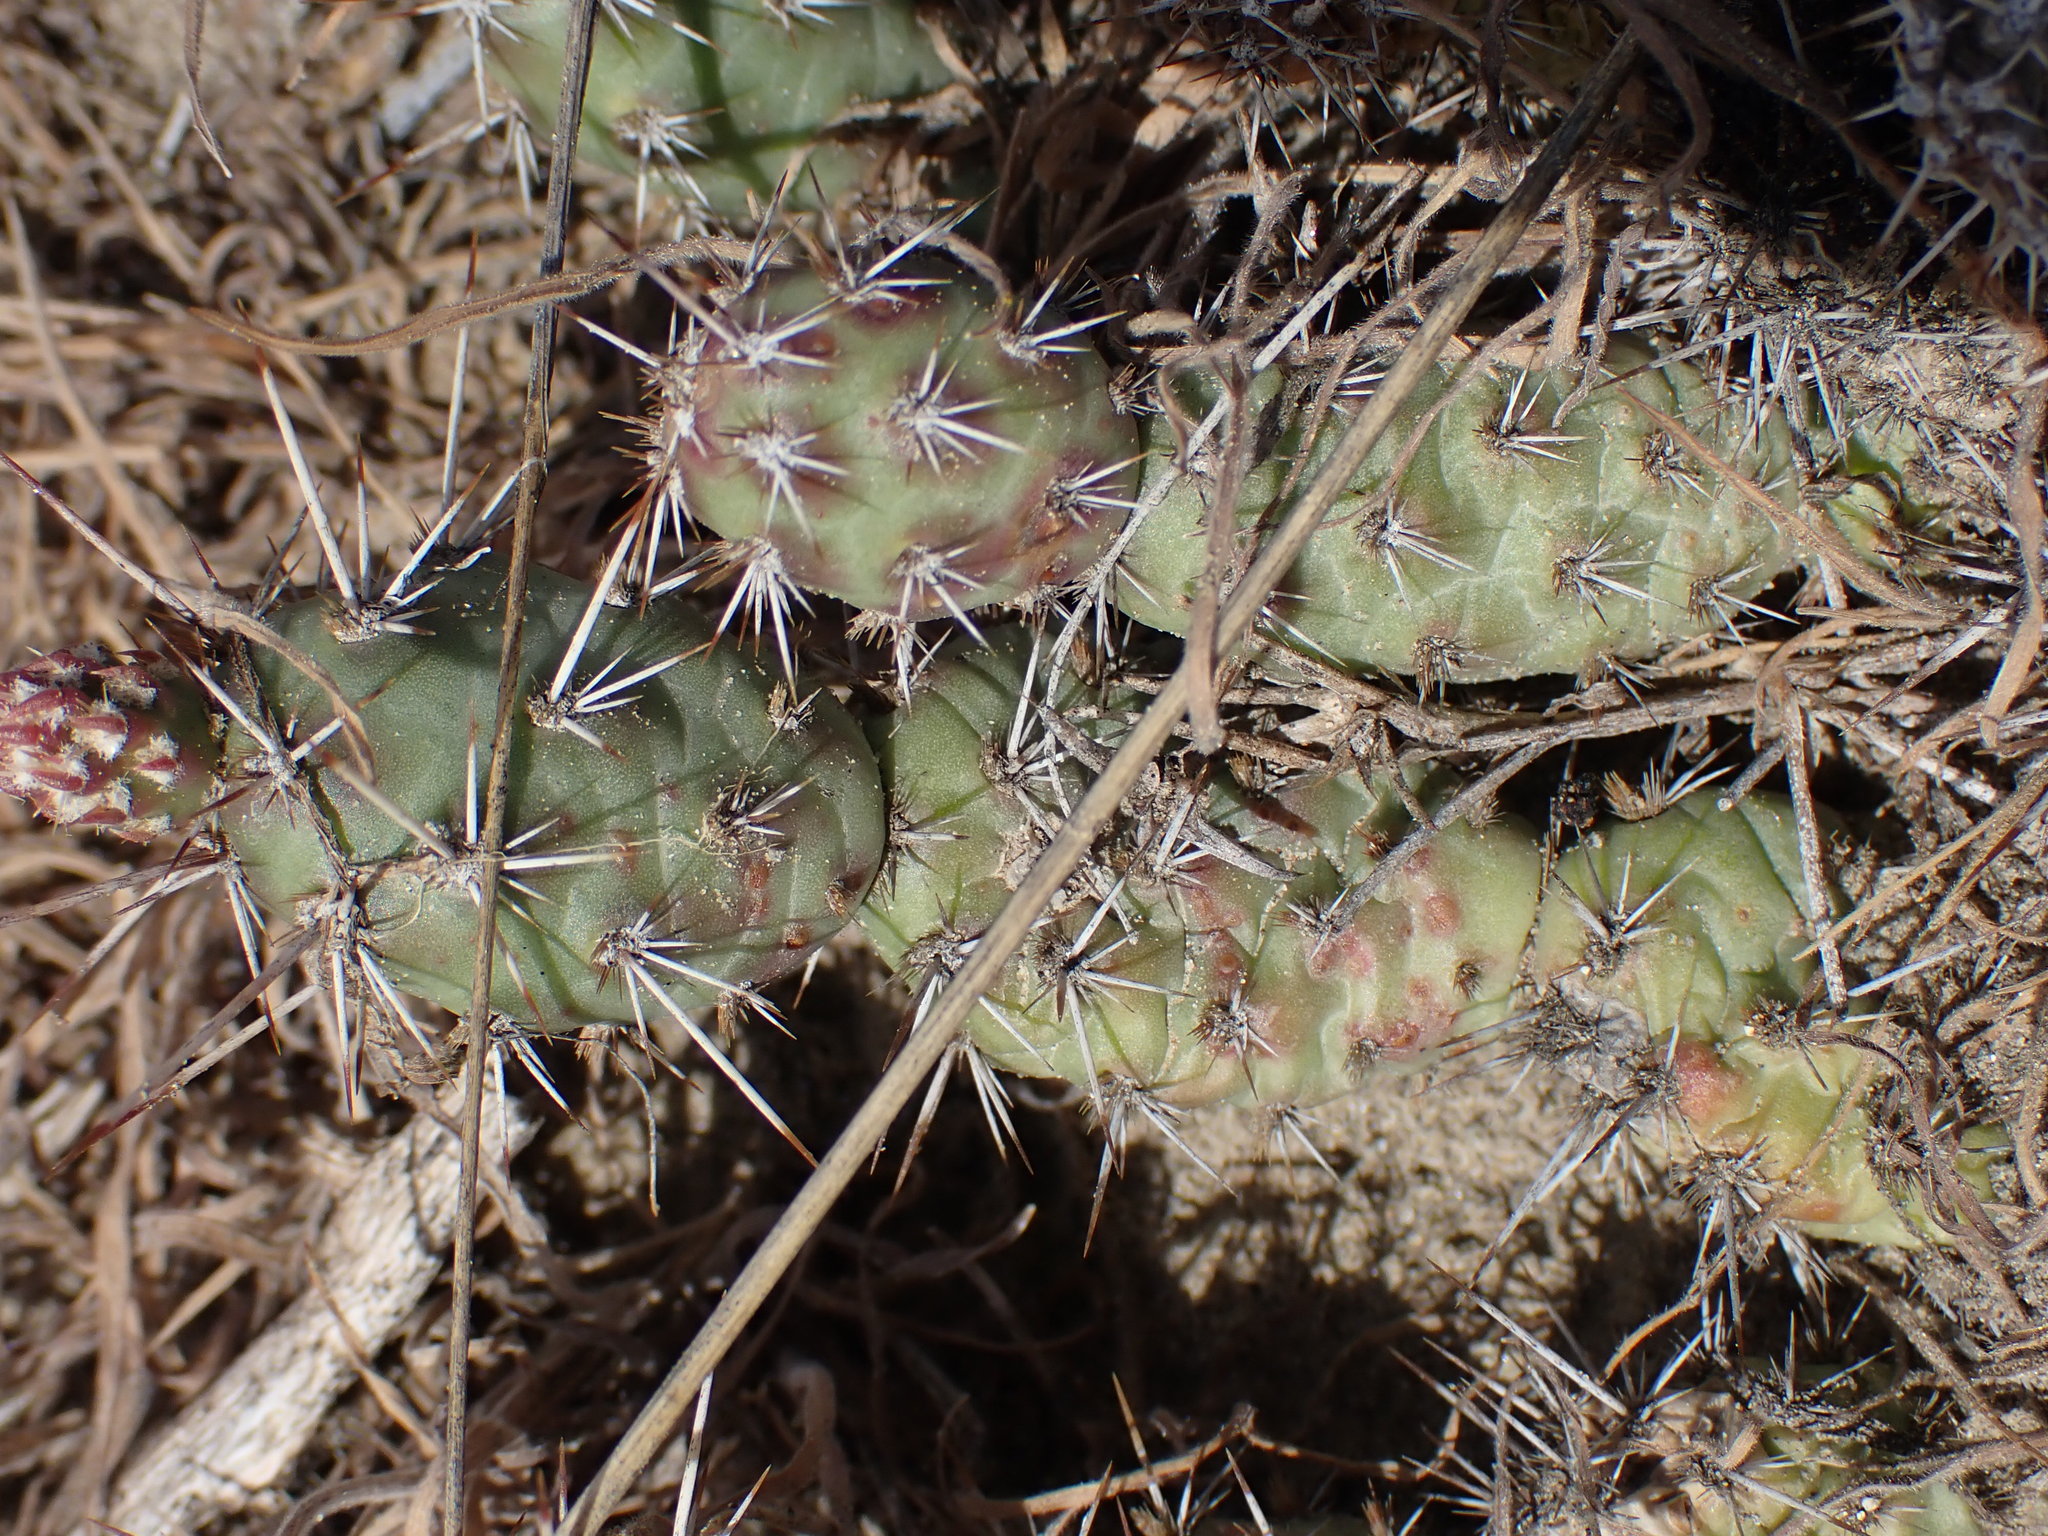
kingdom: Plantae
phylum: Tracheophyta
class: Magnoliopsida
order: Caryophyllales
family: Cactaceae
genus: Opuntia
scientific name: Opuntia fragilis
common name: Brittle cactus
